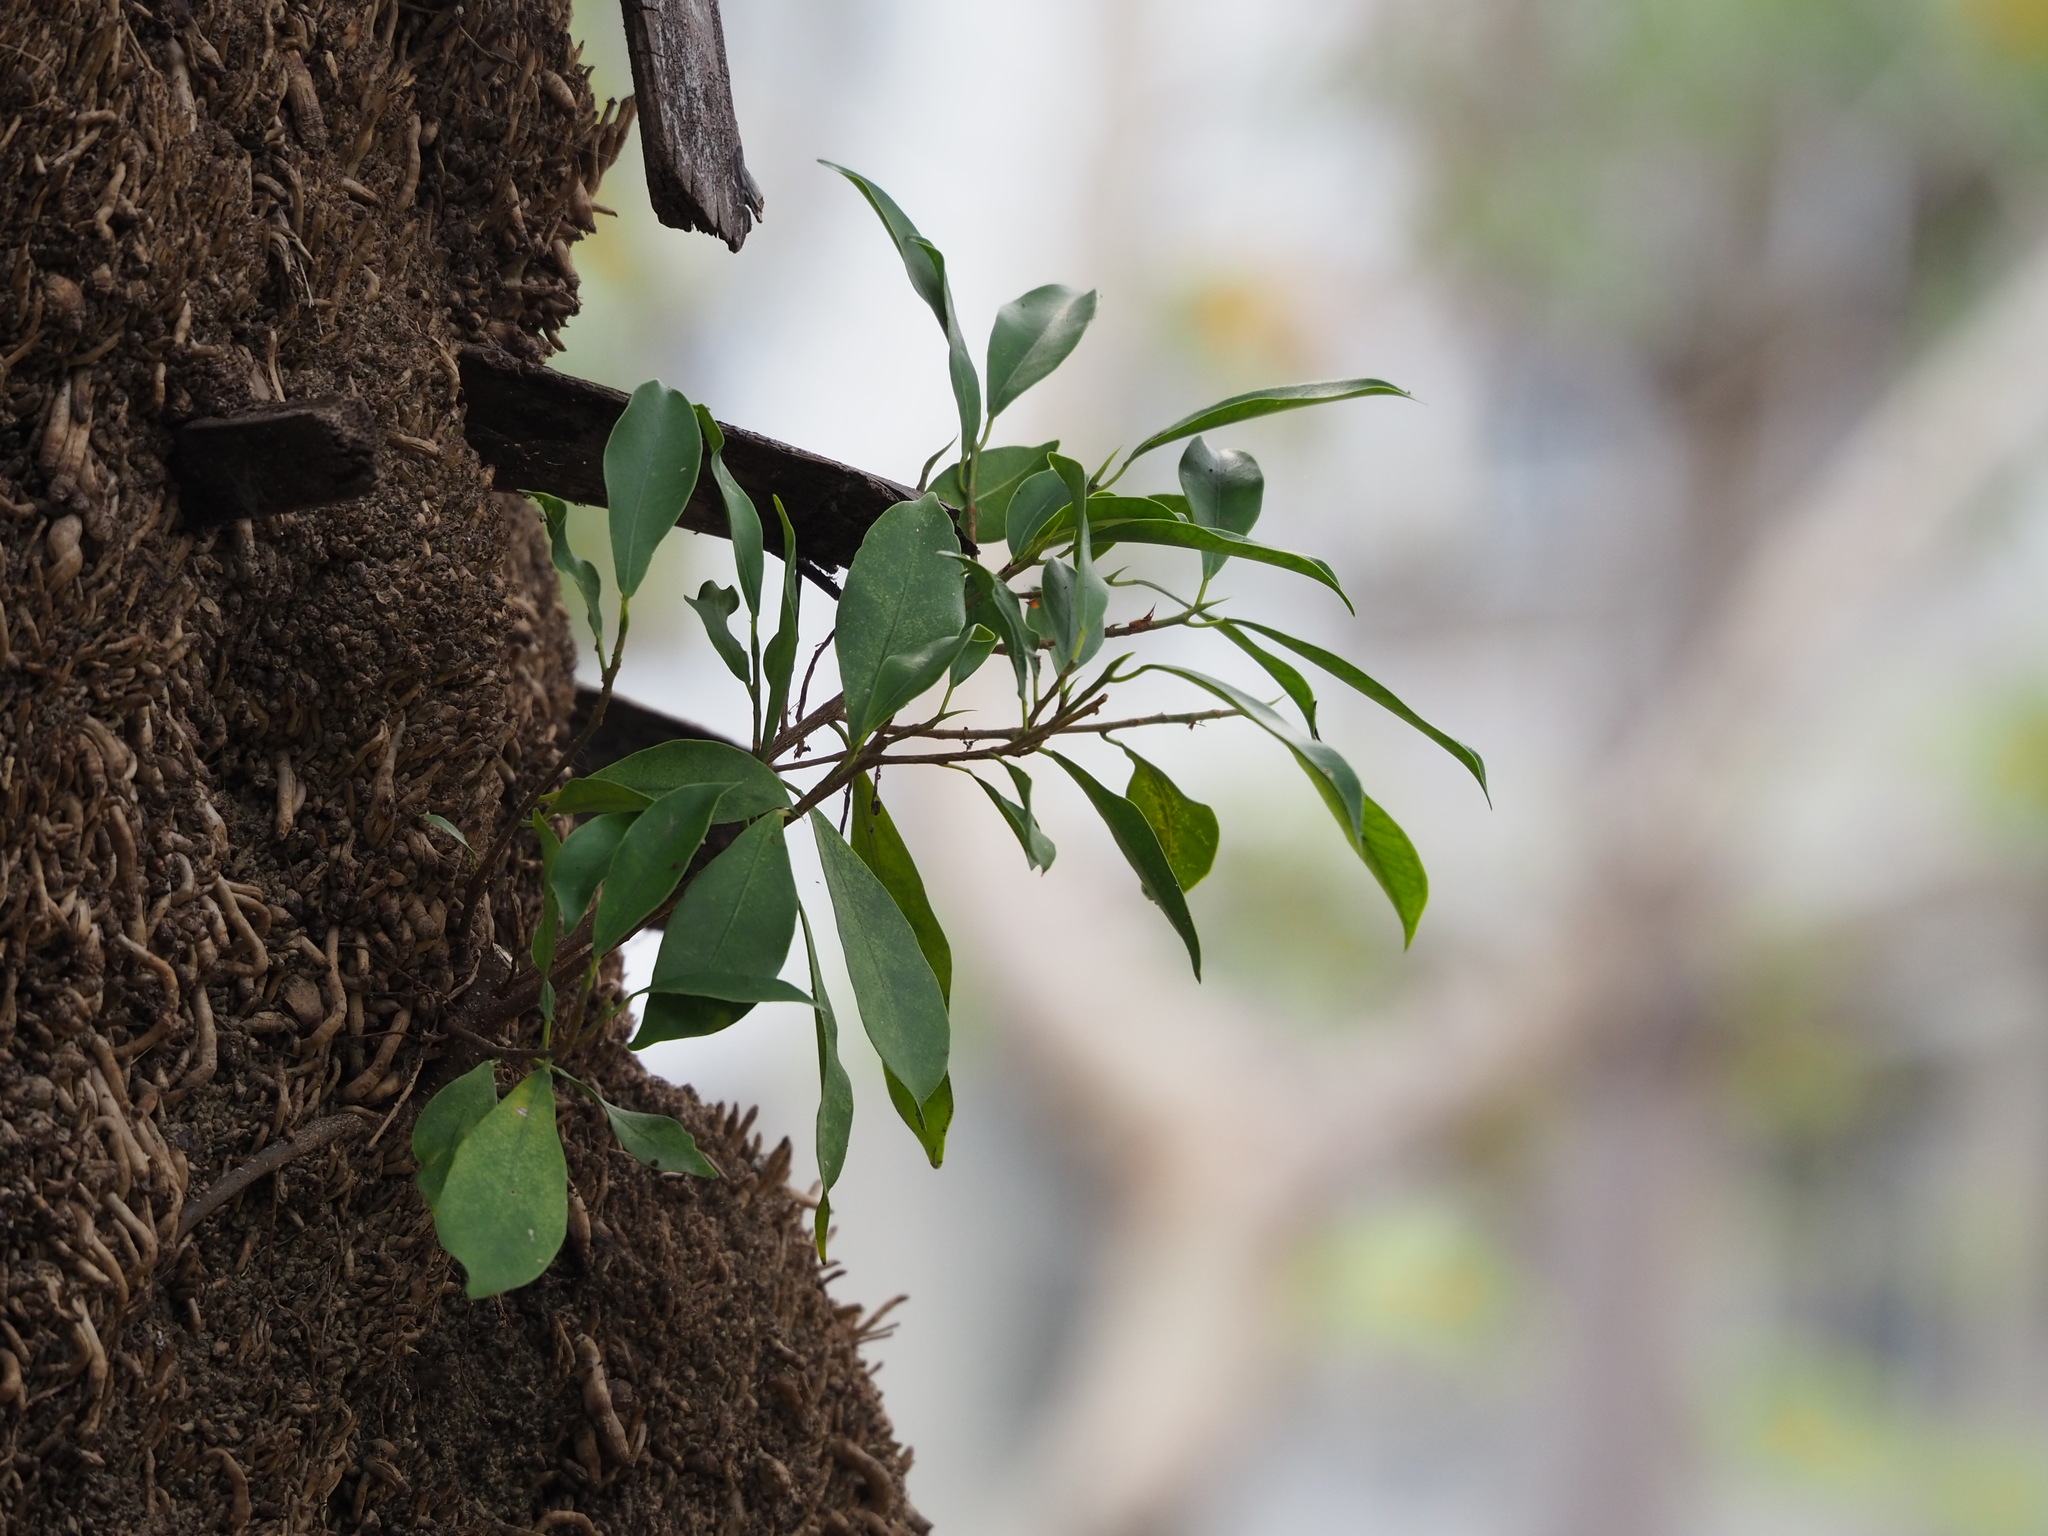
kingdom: Plantae
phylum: Tracheophyta
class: Magnoliopsida
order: Rosales
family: Moraceae
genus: Ficus
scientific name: Ficus microcarpa
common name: Chinese banyan
